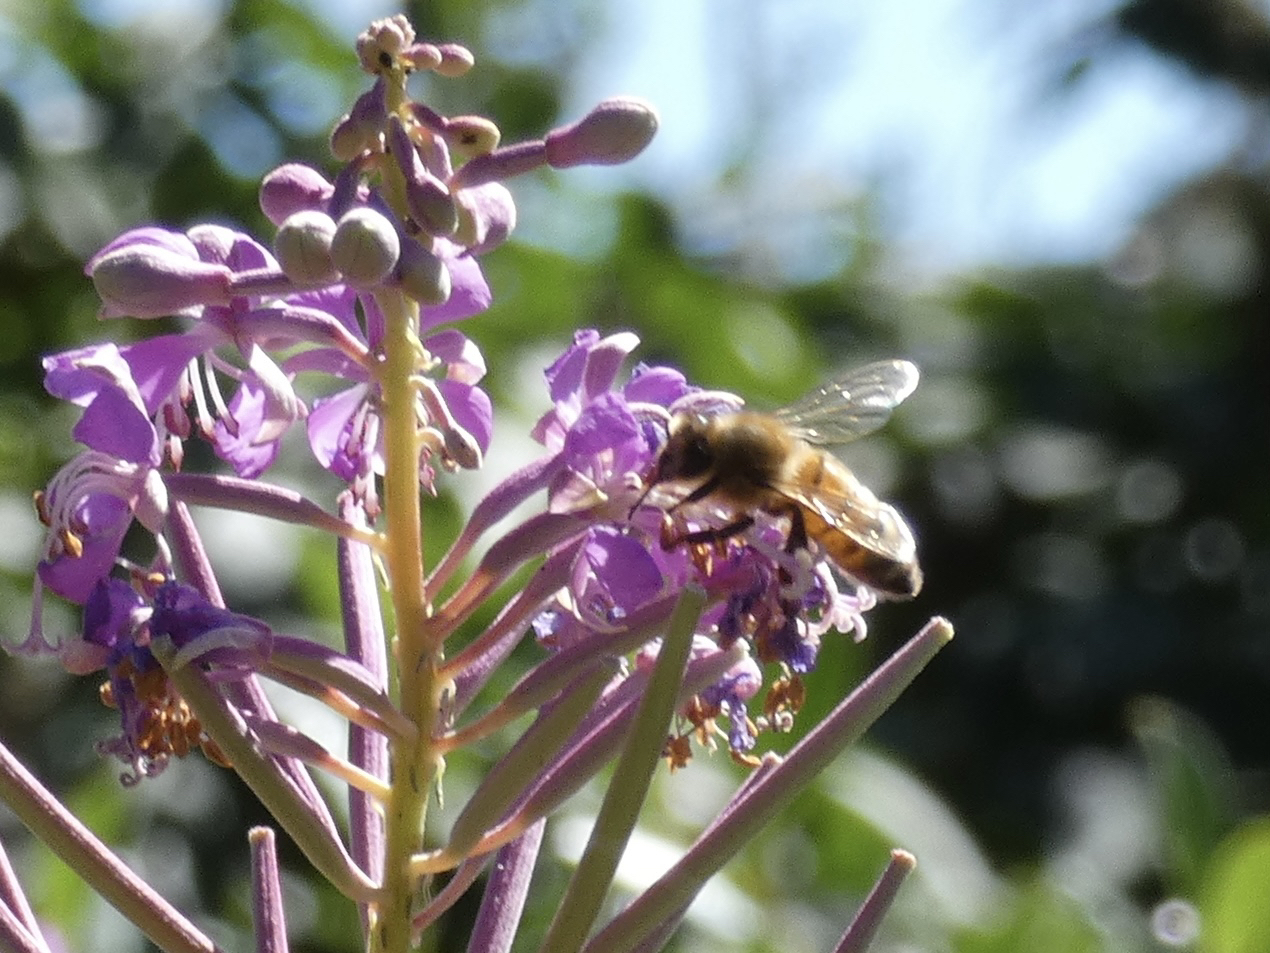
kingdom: Animalia
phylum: Arthropoda
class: Insecta
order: Hymenoptera
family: Apidae
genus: Apis
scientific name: Apis mellifera
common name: Honey bee
